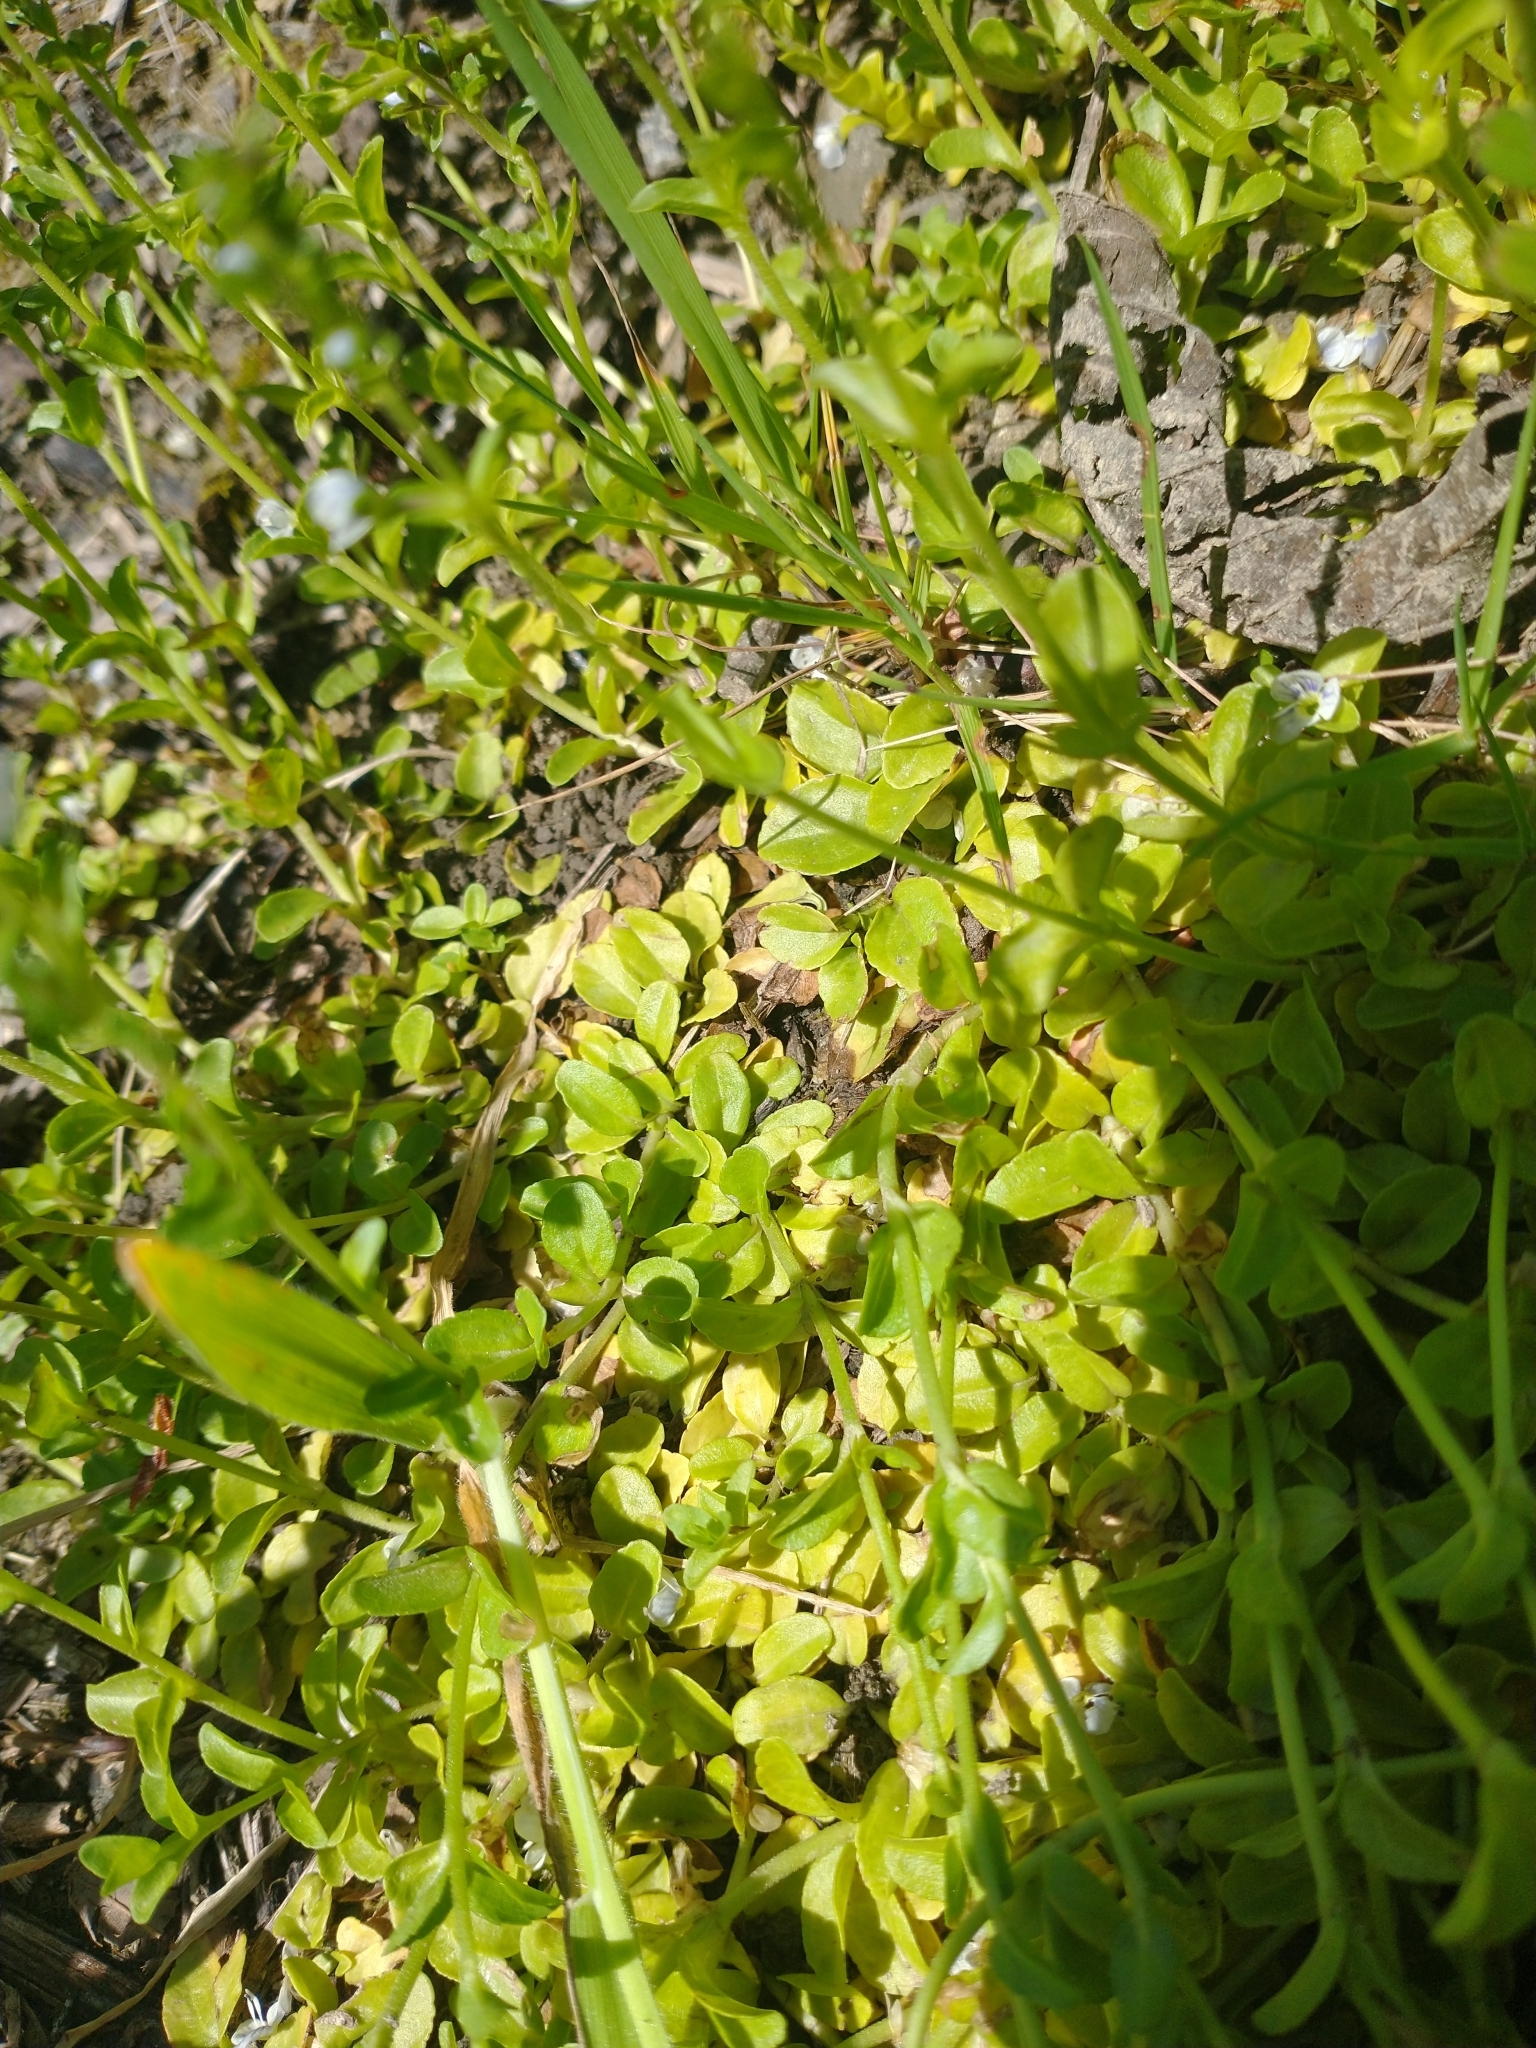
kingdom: Plantae
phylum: Tracheophyta
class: Magnoliopsida
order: Lamiales
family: Plantaginaceae
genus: Veronica
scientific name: Veronica serpyllifolia
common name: Thyme-leaved speedwell
